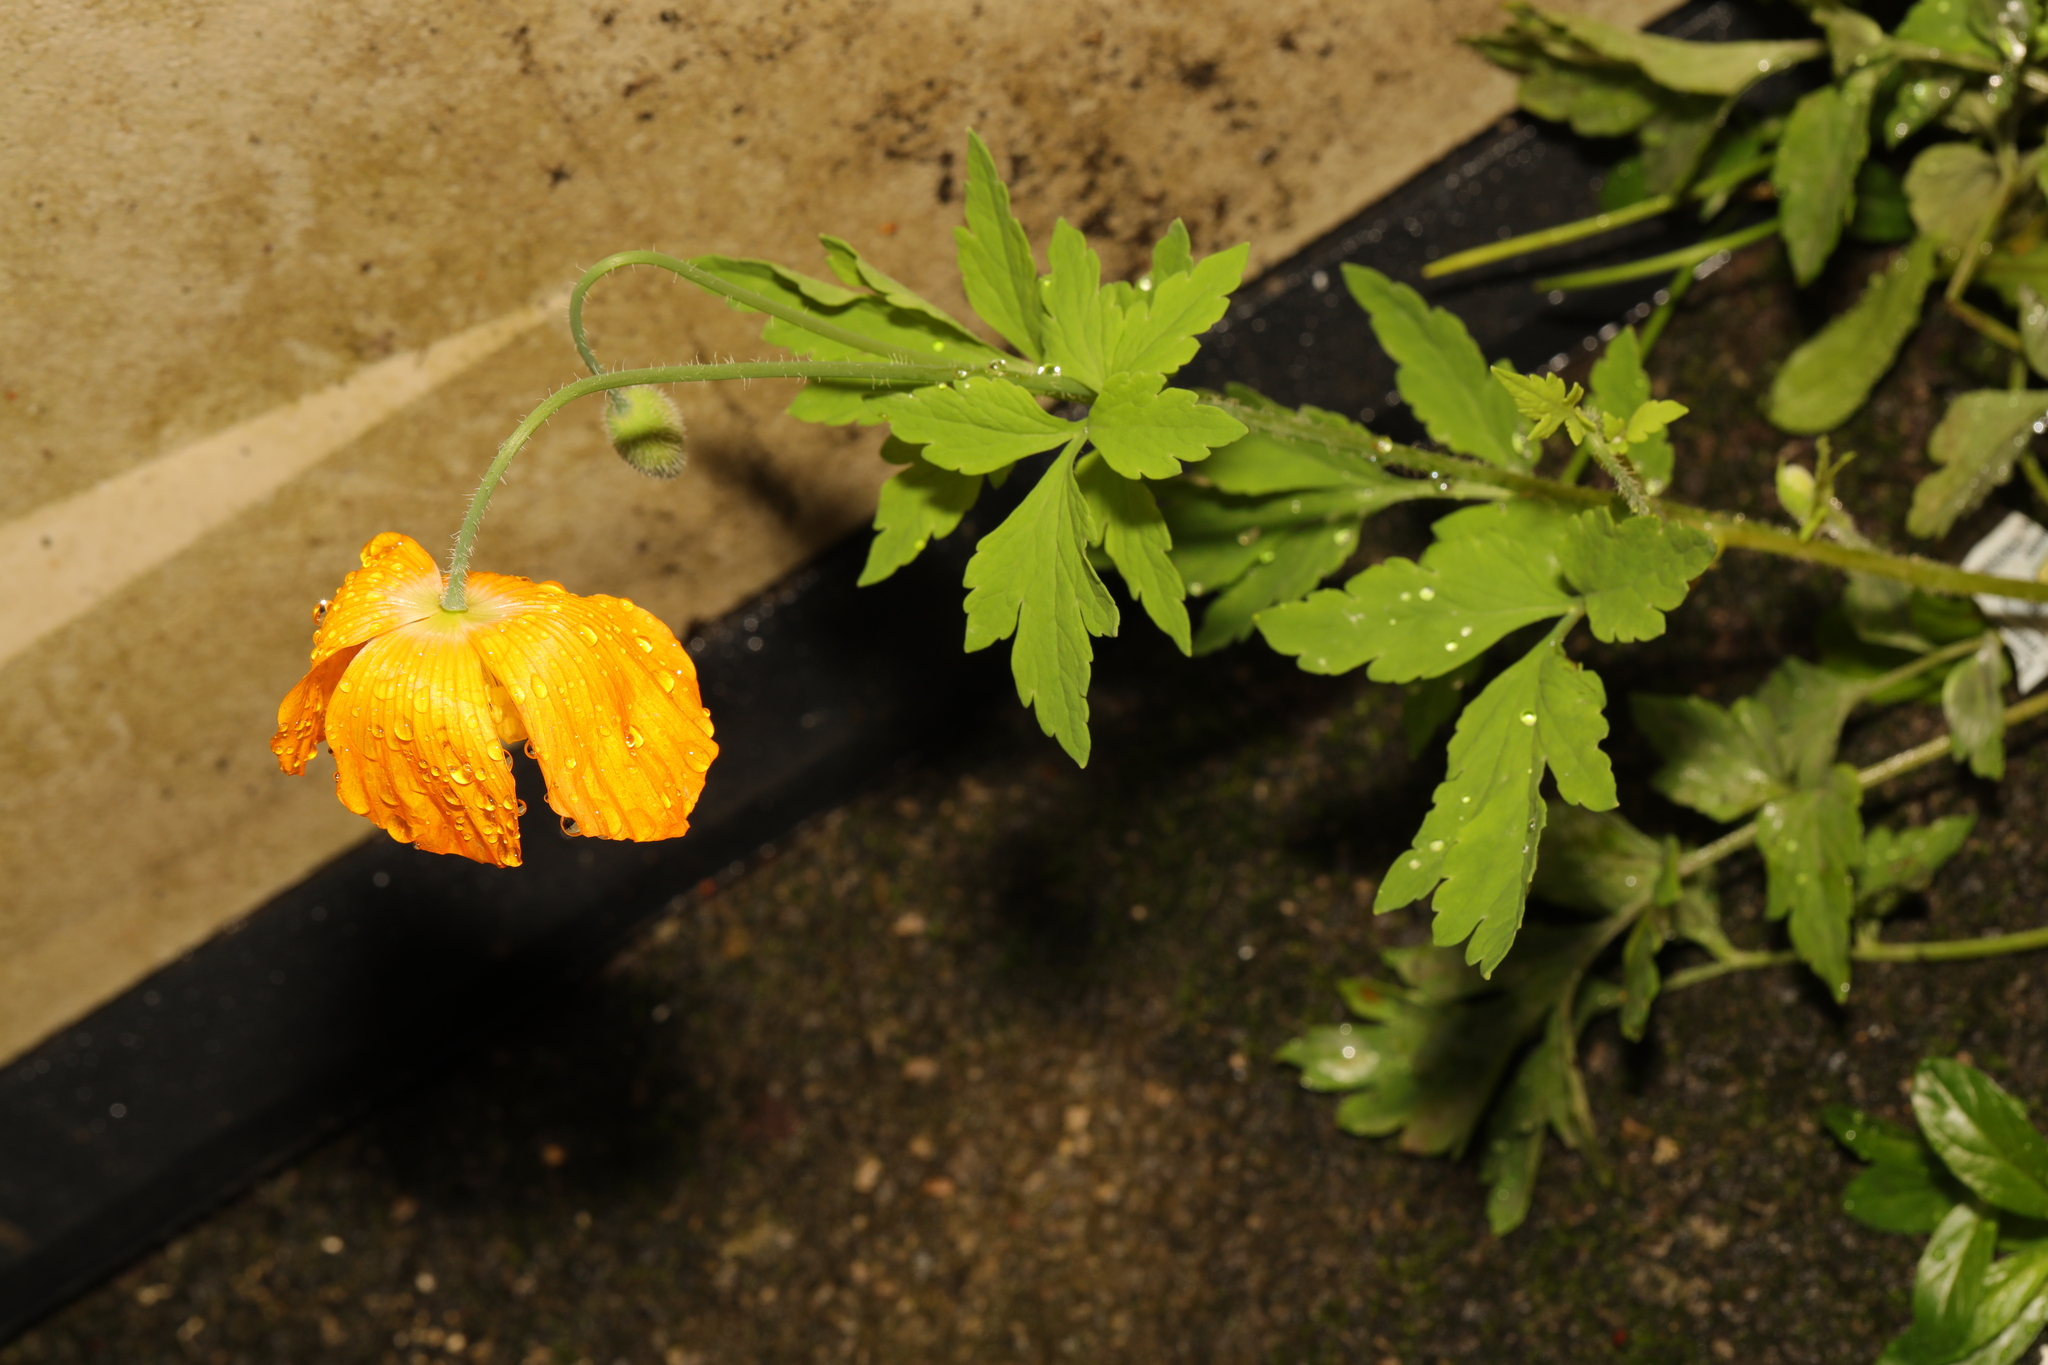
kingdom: Plantae
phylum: Tracheophyta
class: Magnoliopsida
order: Ranunculales
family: Papaveraceae
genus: Papaver
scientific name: Papaver cambricum
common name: Poppy
